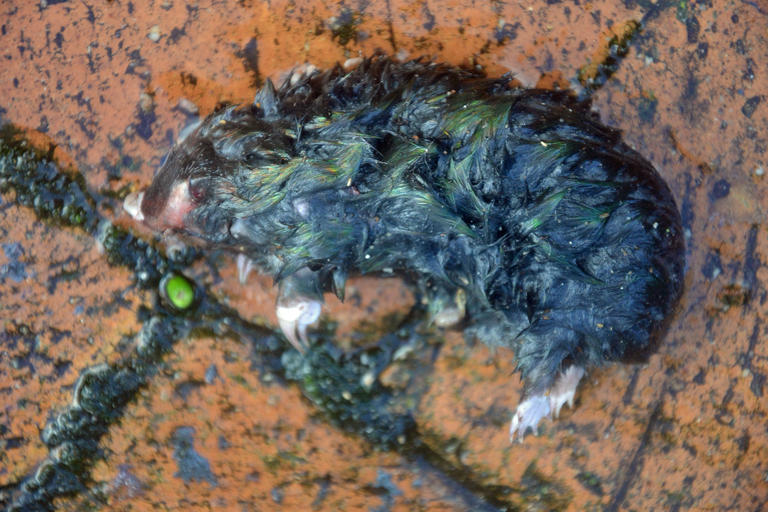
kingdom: Animalia
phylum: Chordata
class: Mammalia
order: Afrosoricida
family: Chrysochloridae
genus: Chrysochloris
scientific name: Chrysochloris asiatica
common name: Cape golden mole
